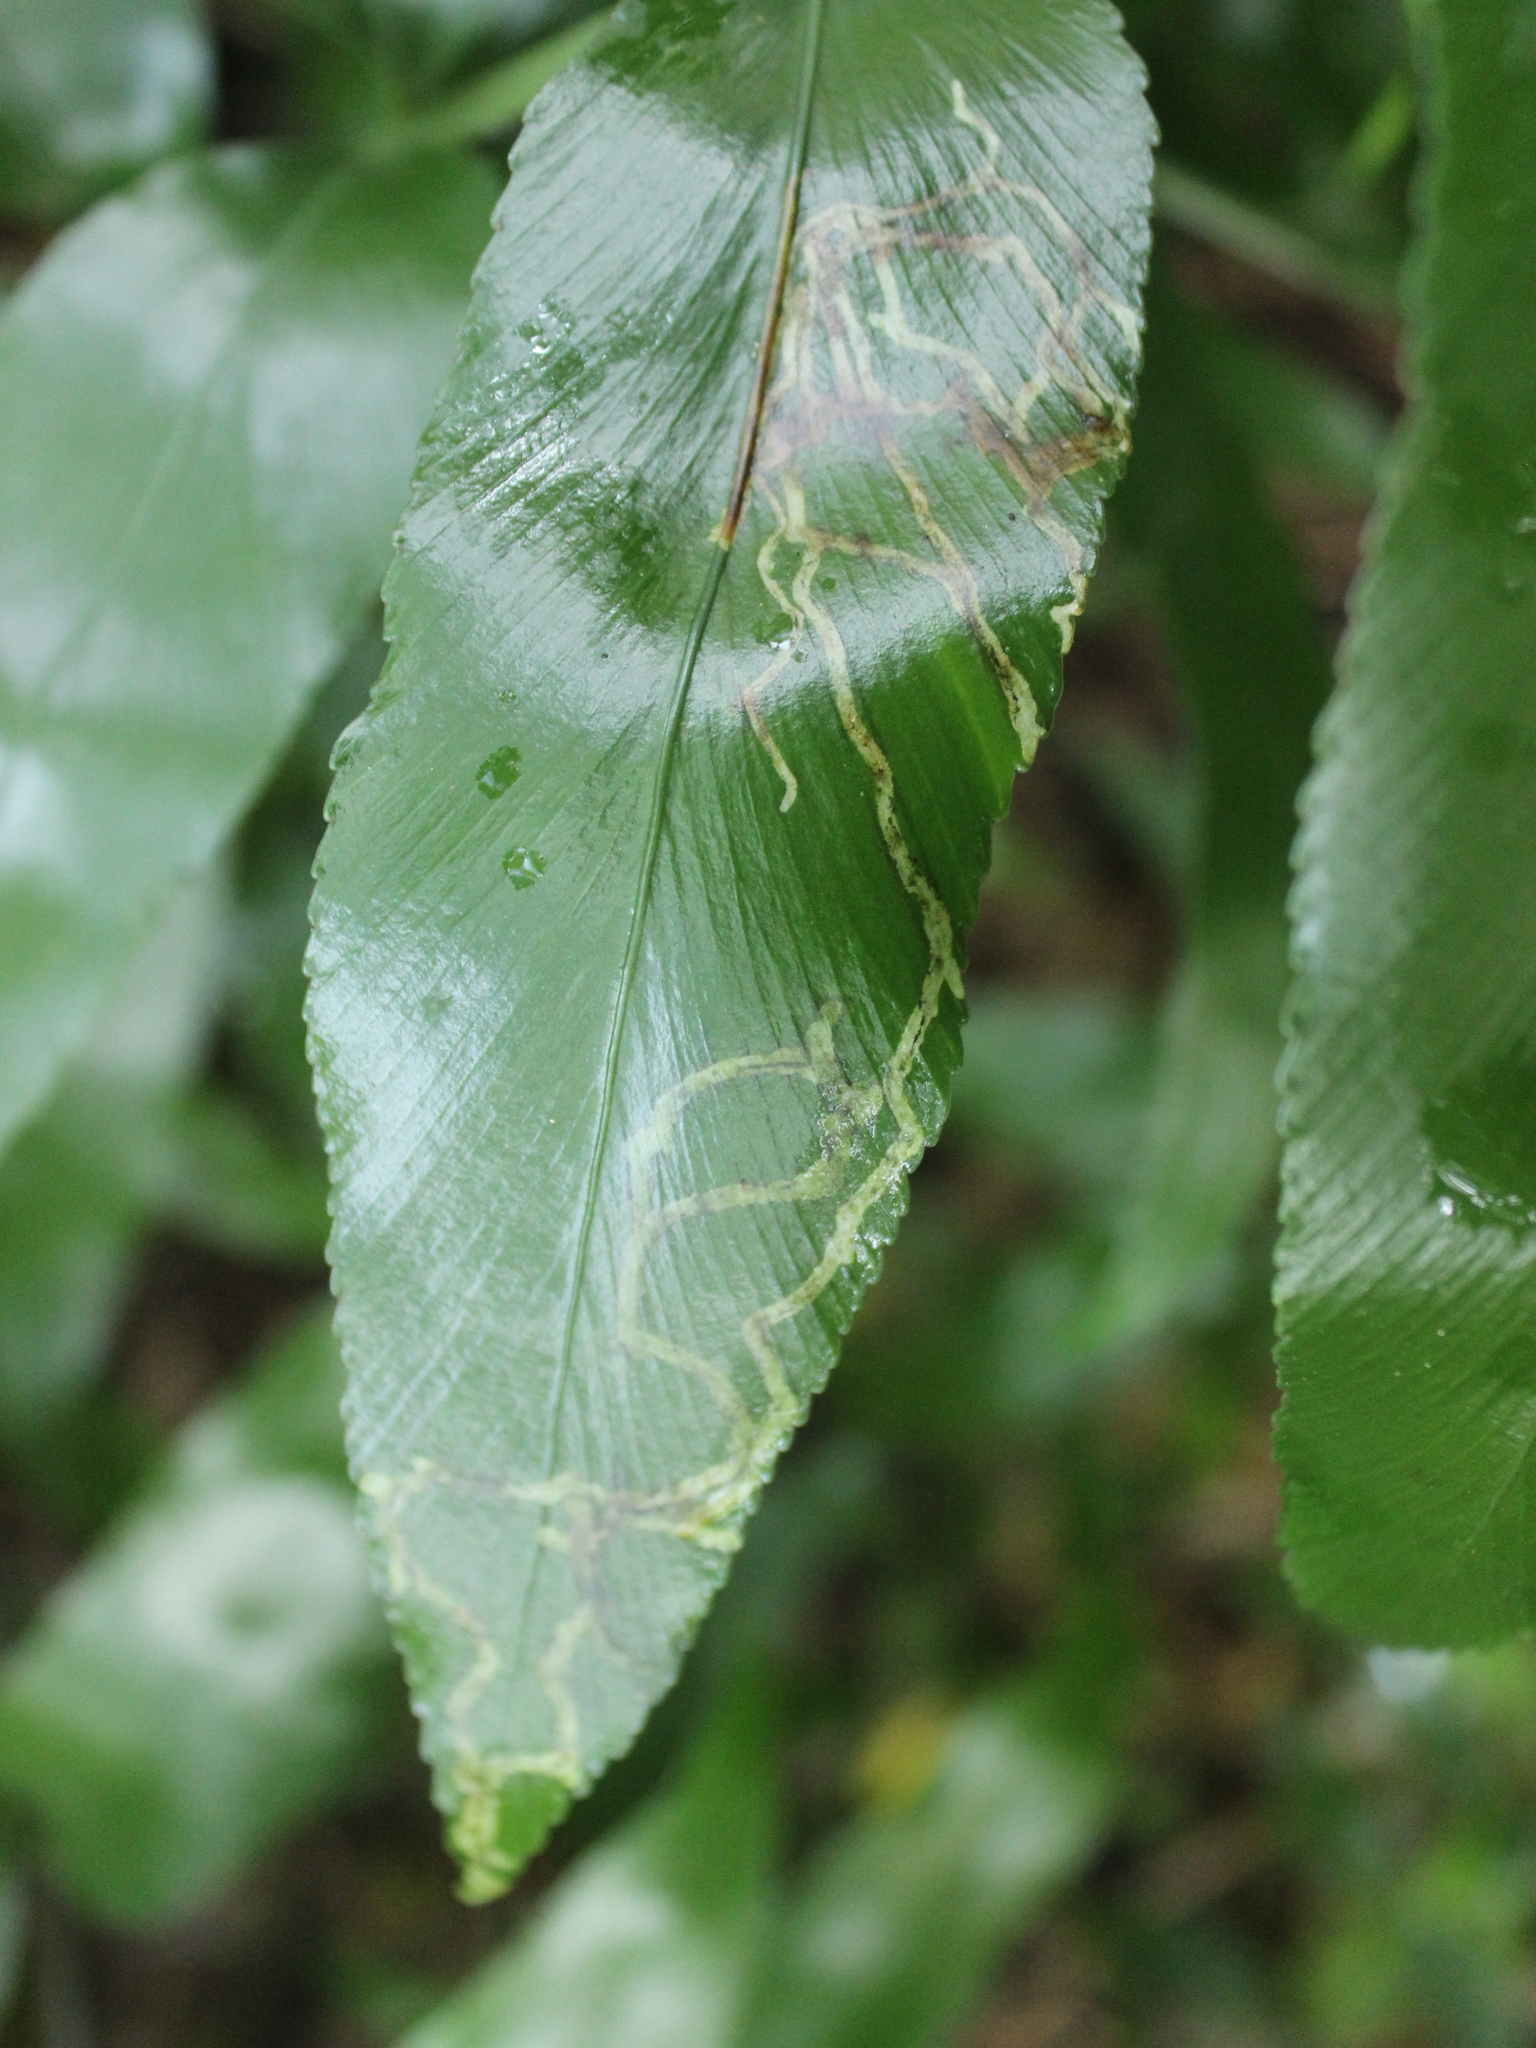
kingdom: Plantae
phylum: Tracheophyta
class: Polypodiopsida
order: Polypodiales
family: Aspleniaceae
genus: Asplenium
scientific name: Asplenium oblongifolium
